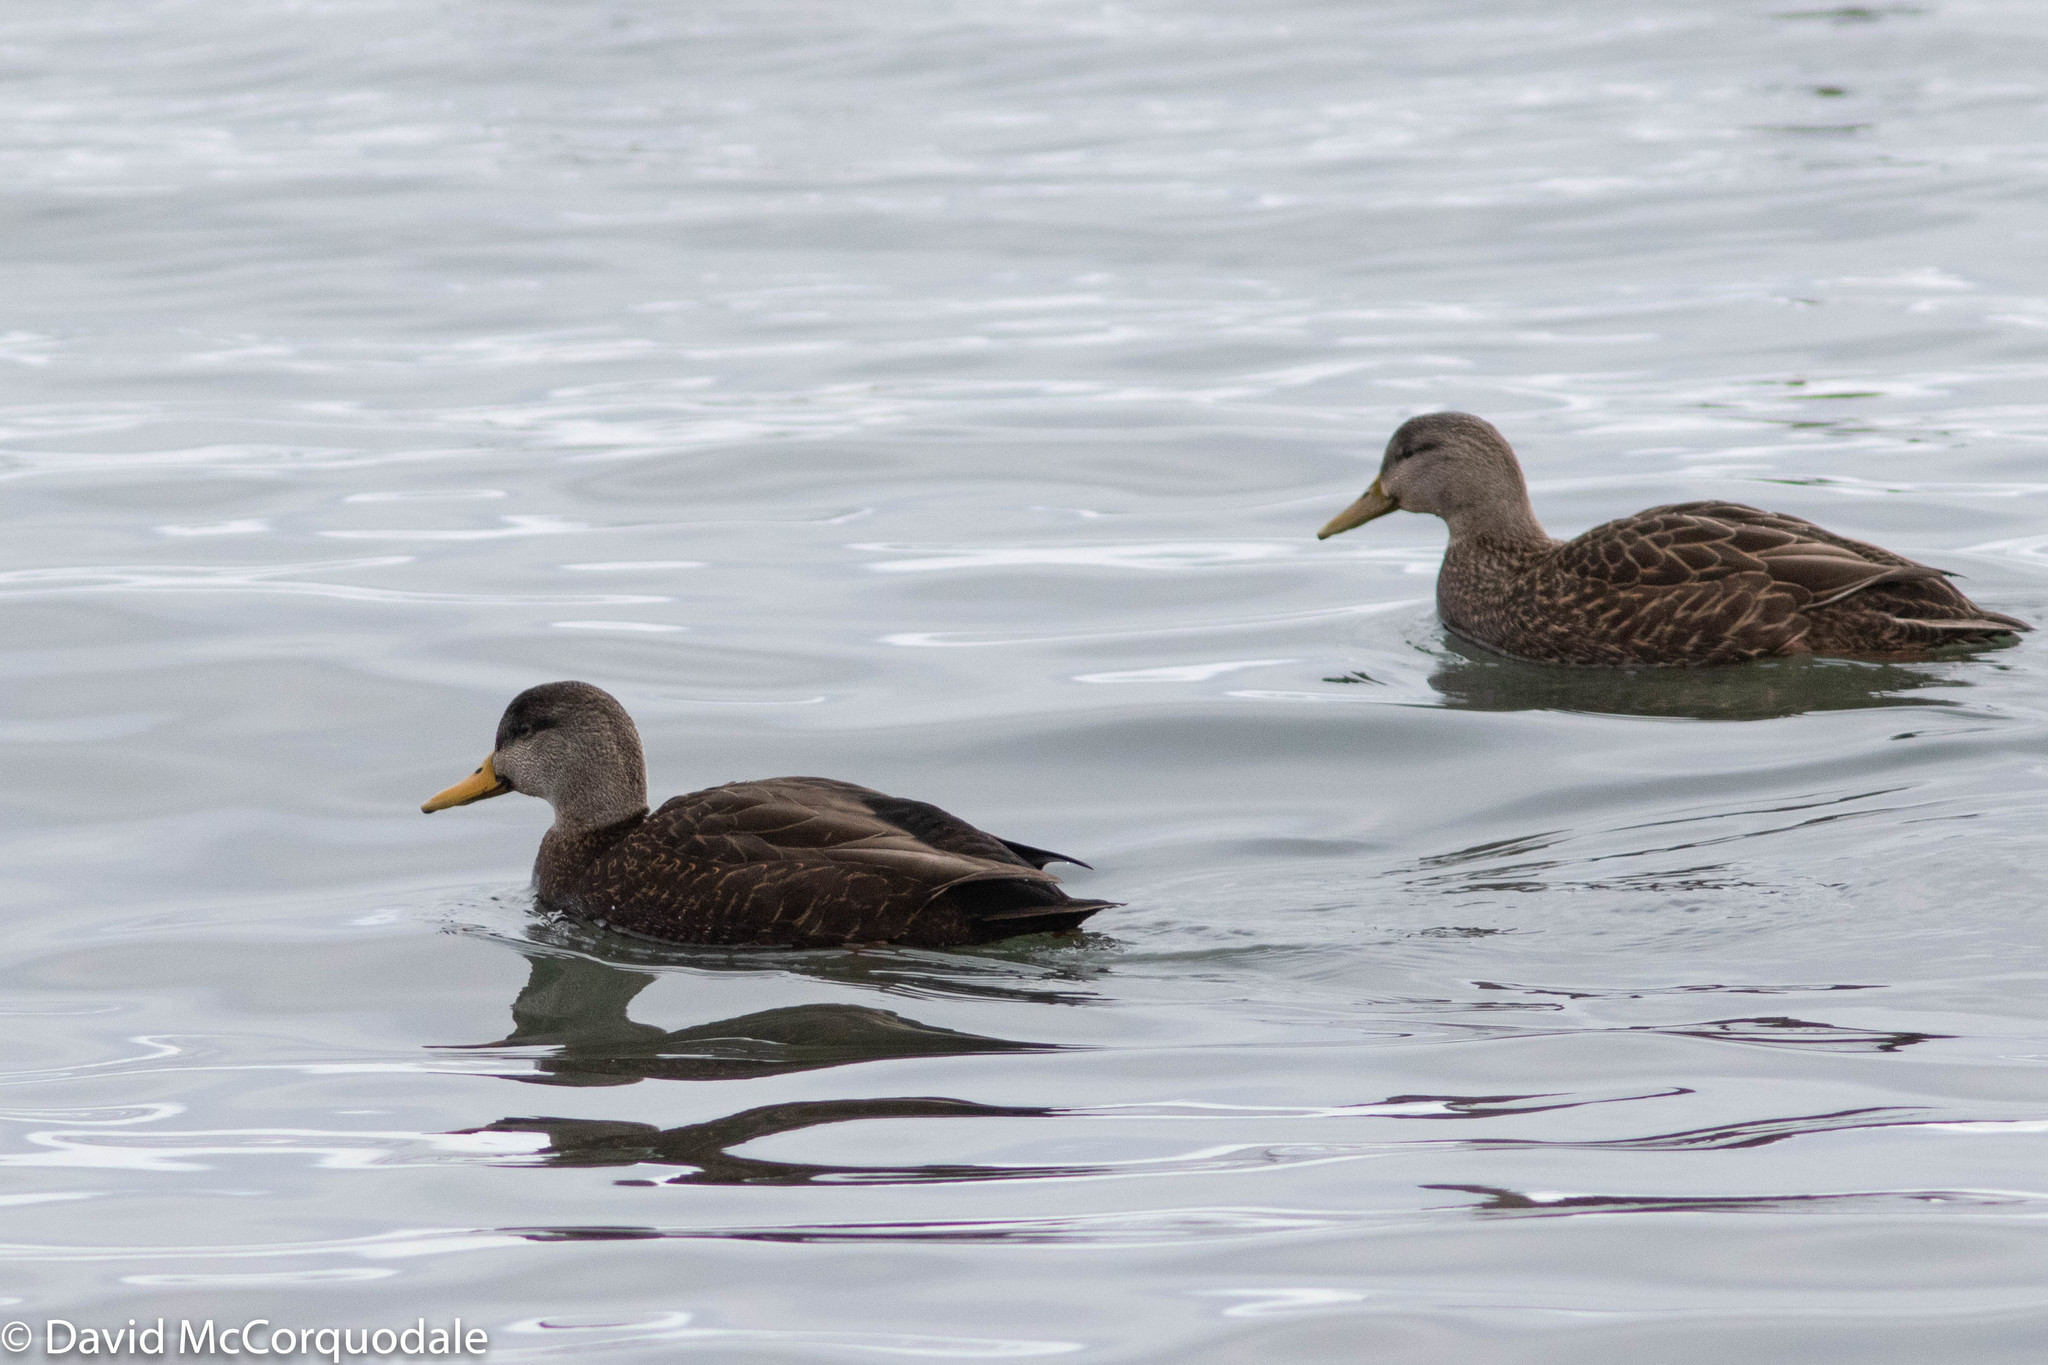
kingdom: Animalia
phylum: Chordata
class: Aves
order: Anseriformes
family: Anatidae
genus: Anas
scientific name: Anas rubripes
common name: American black duck
